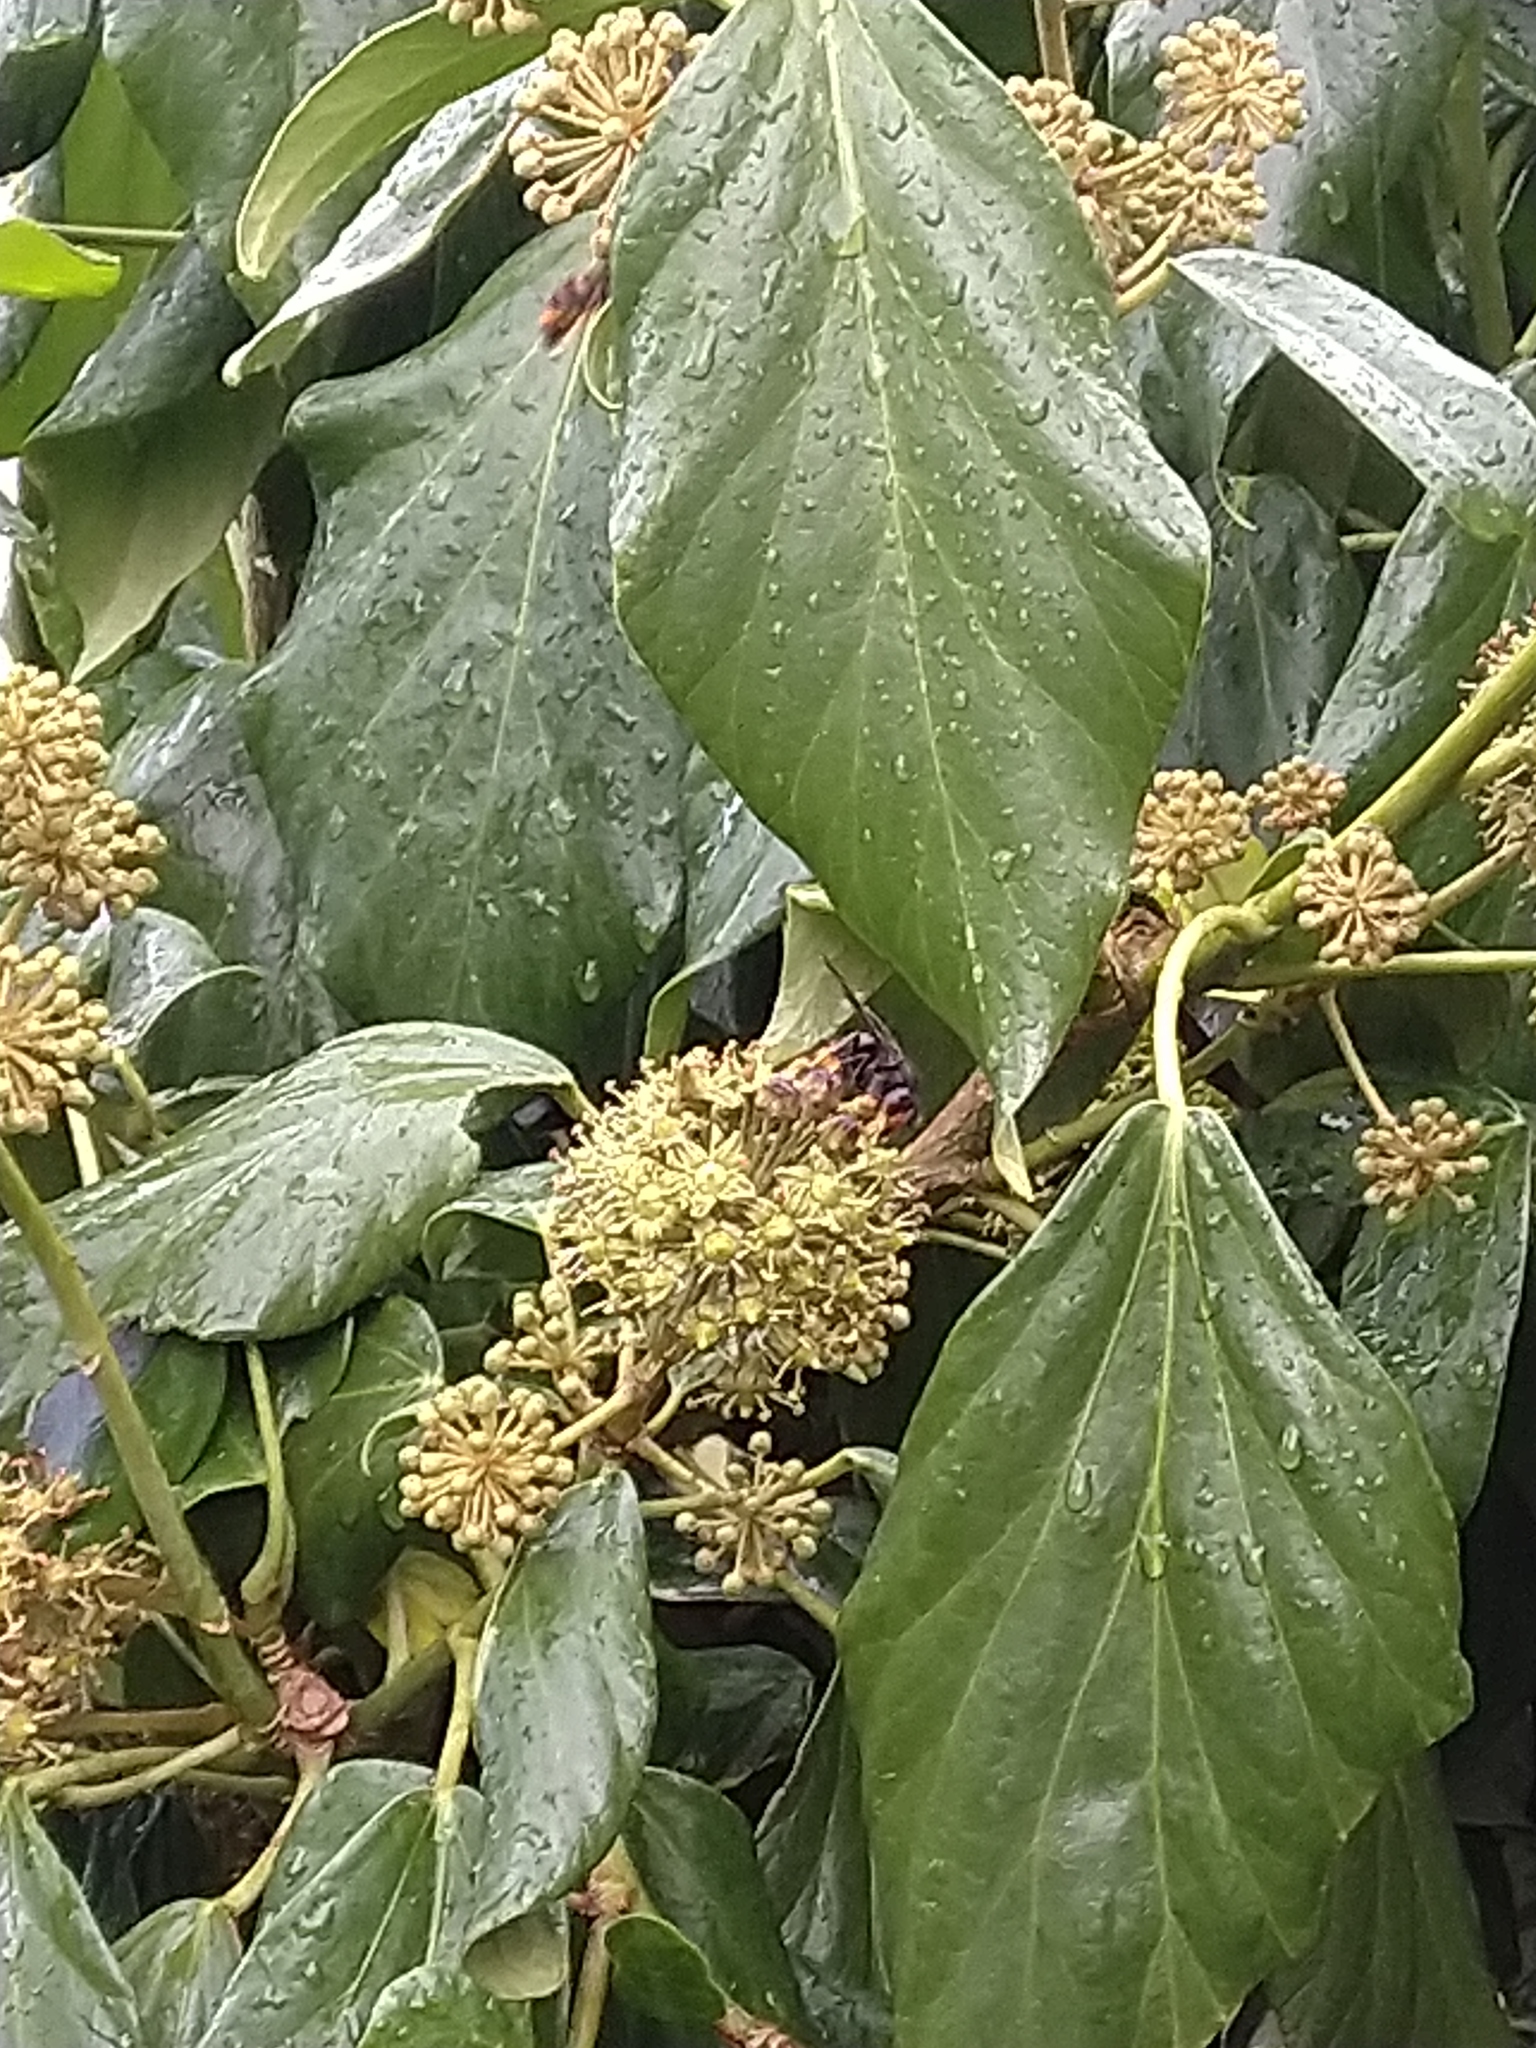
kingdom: Animalia
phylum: Arthropoda
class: Insecta
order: Hymenoptera
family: Vespidae
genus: Vespa
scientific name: Vespa velutina
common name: Asian hornet
